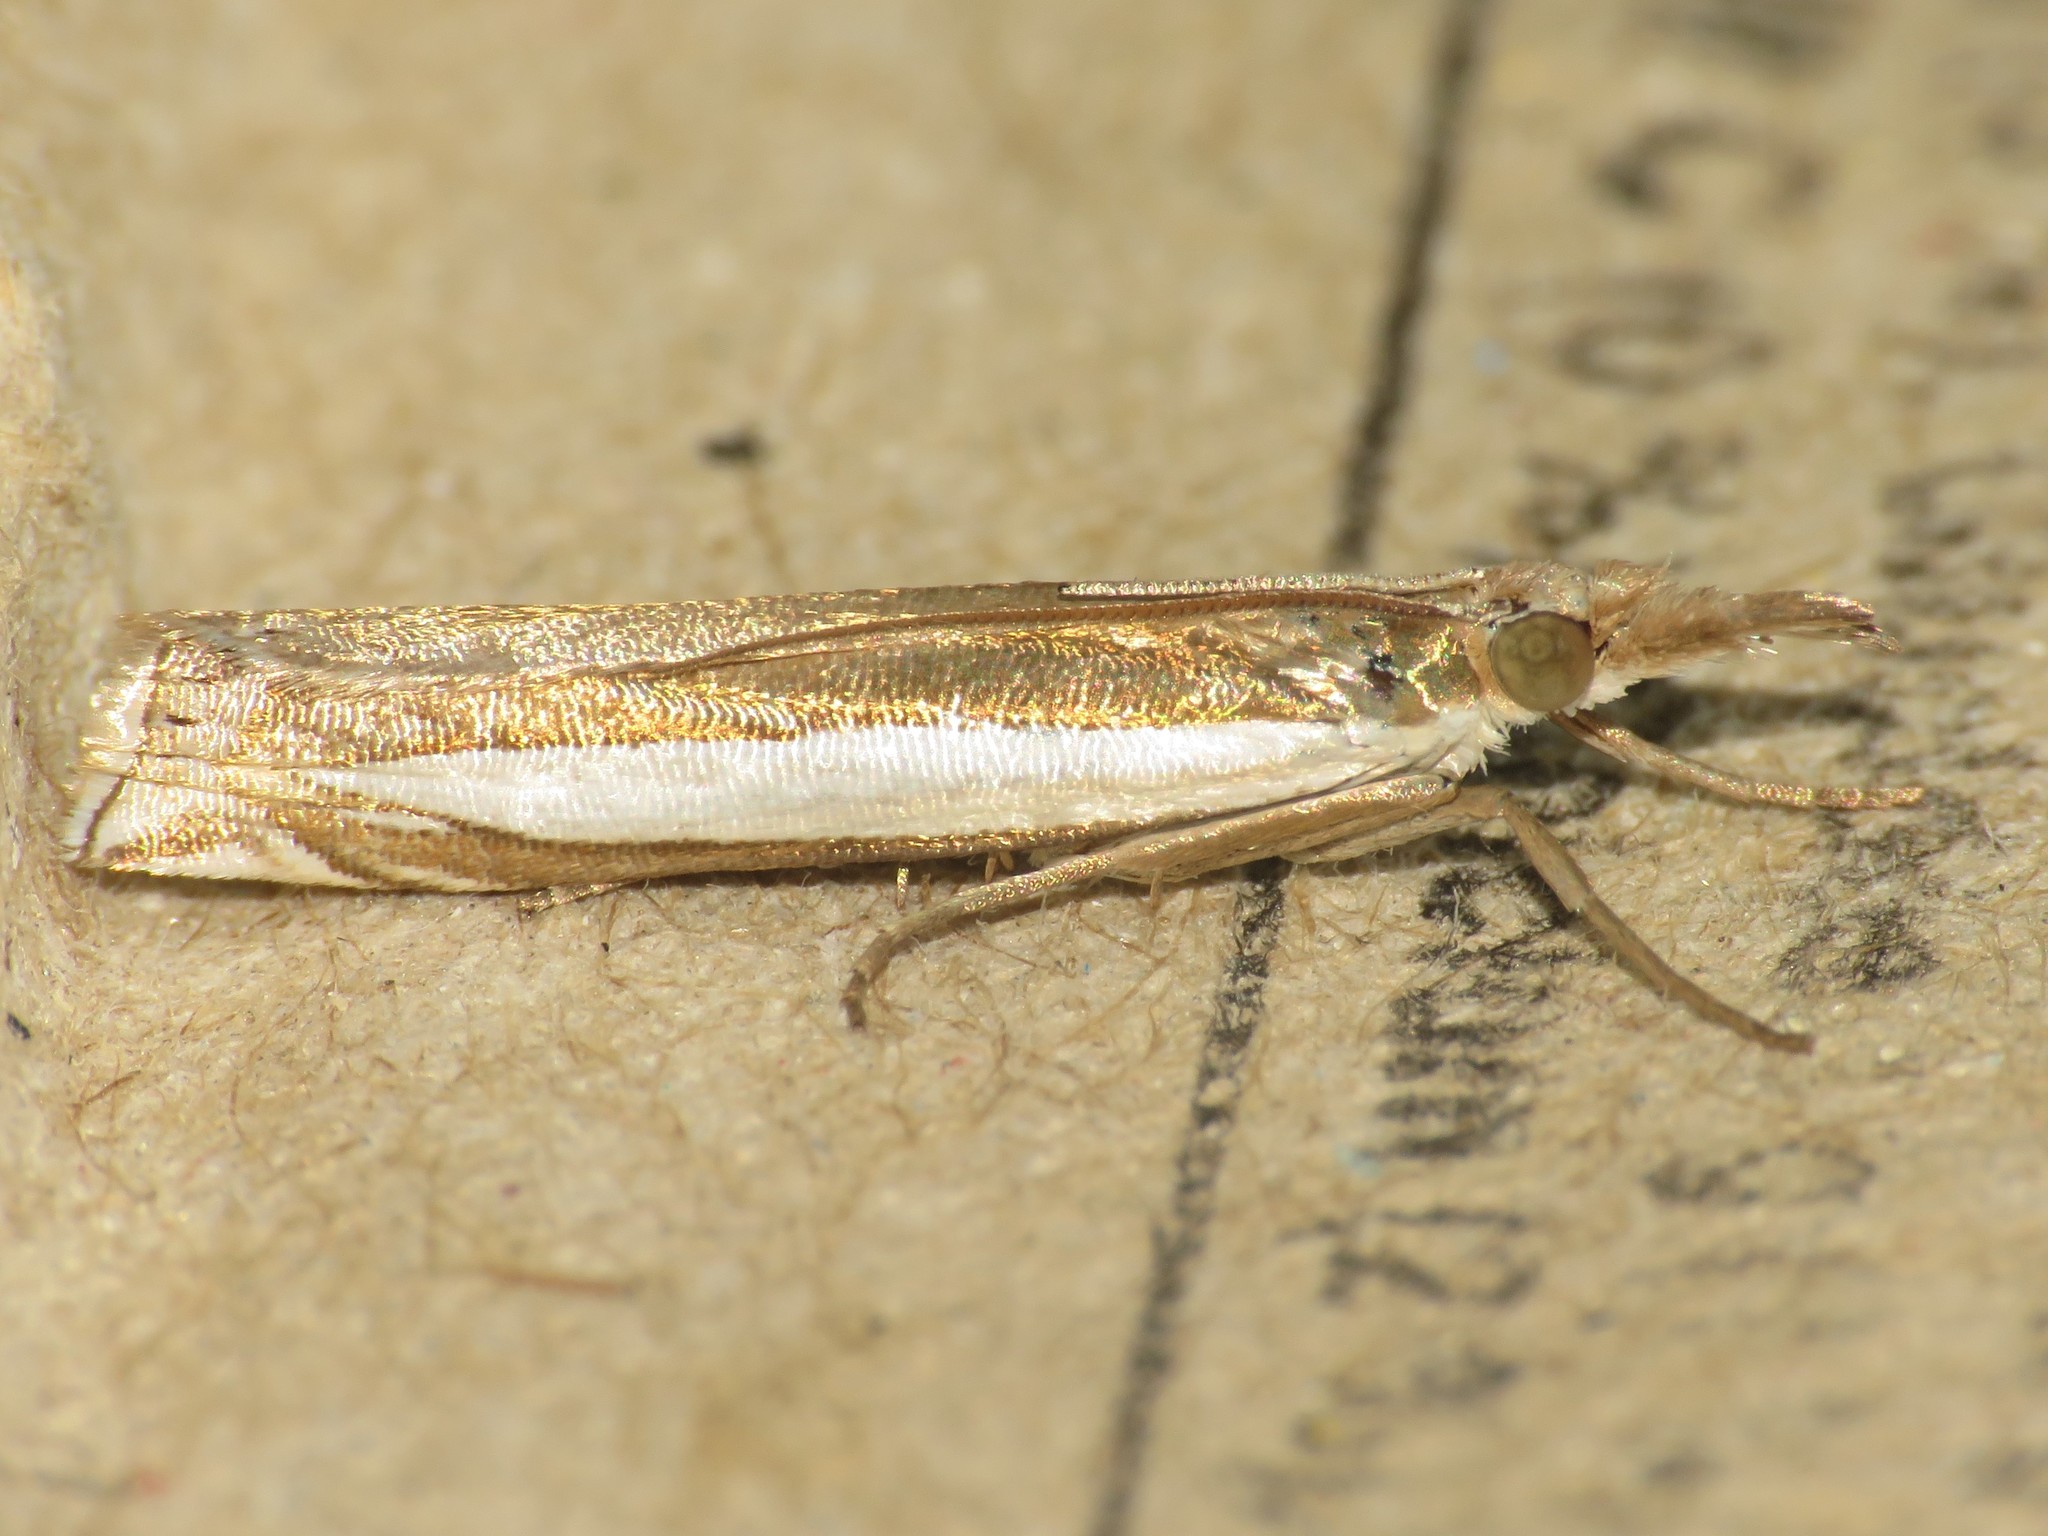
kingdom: Animalia
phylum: Arthropoda
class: Insecta
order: Lepidoptera
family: Crambidae
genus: Crambus
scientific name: Crambus leachellus
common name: Leach's grass-veneer
